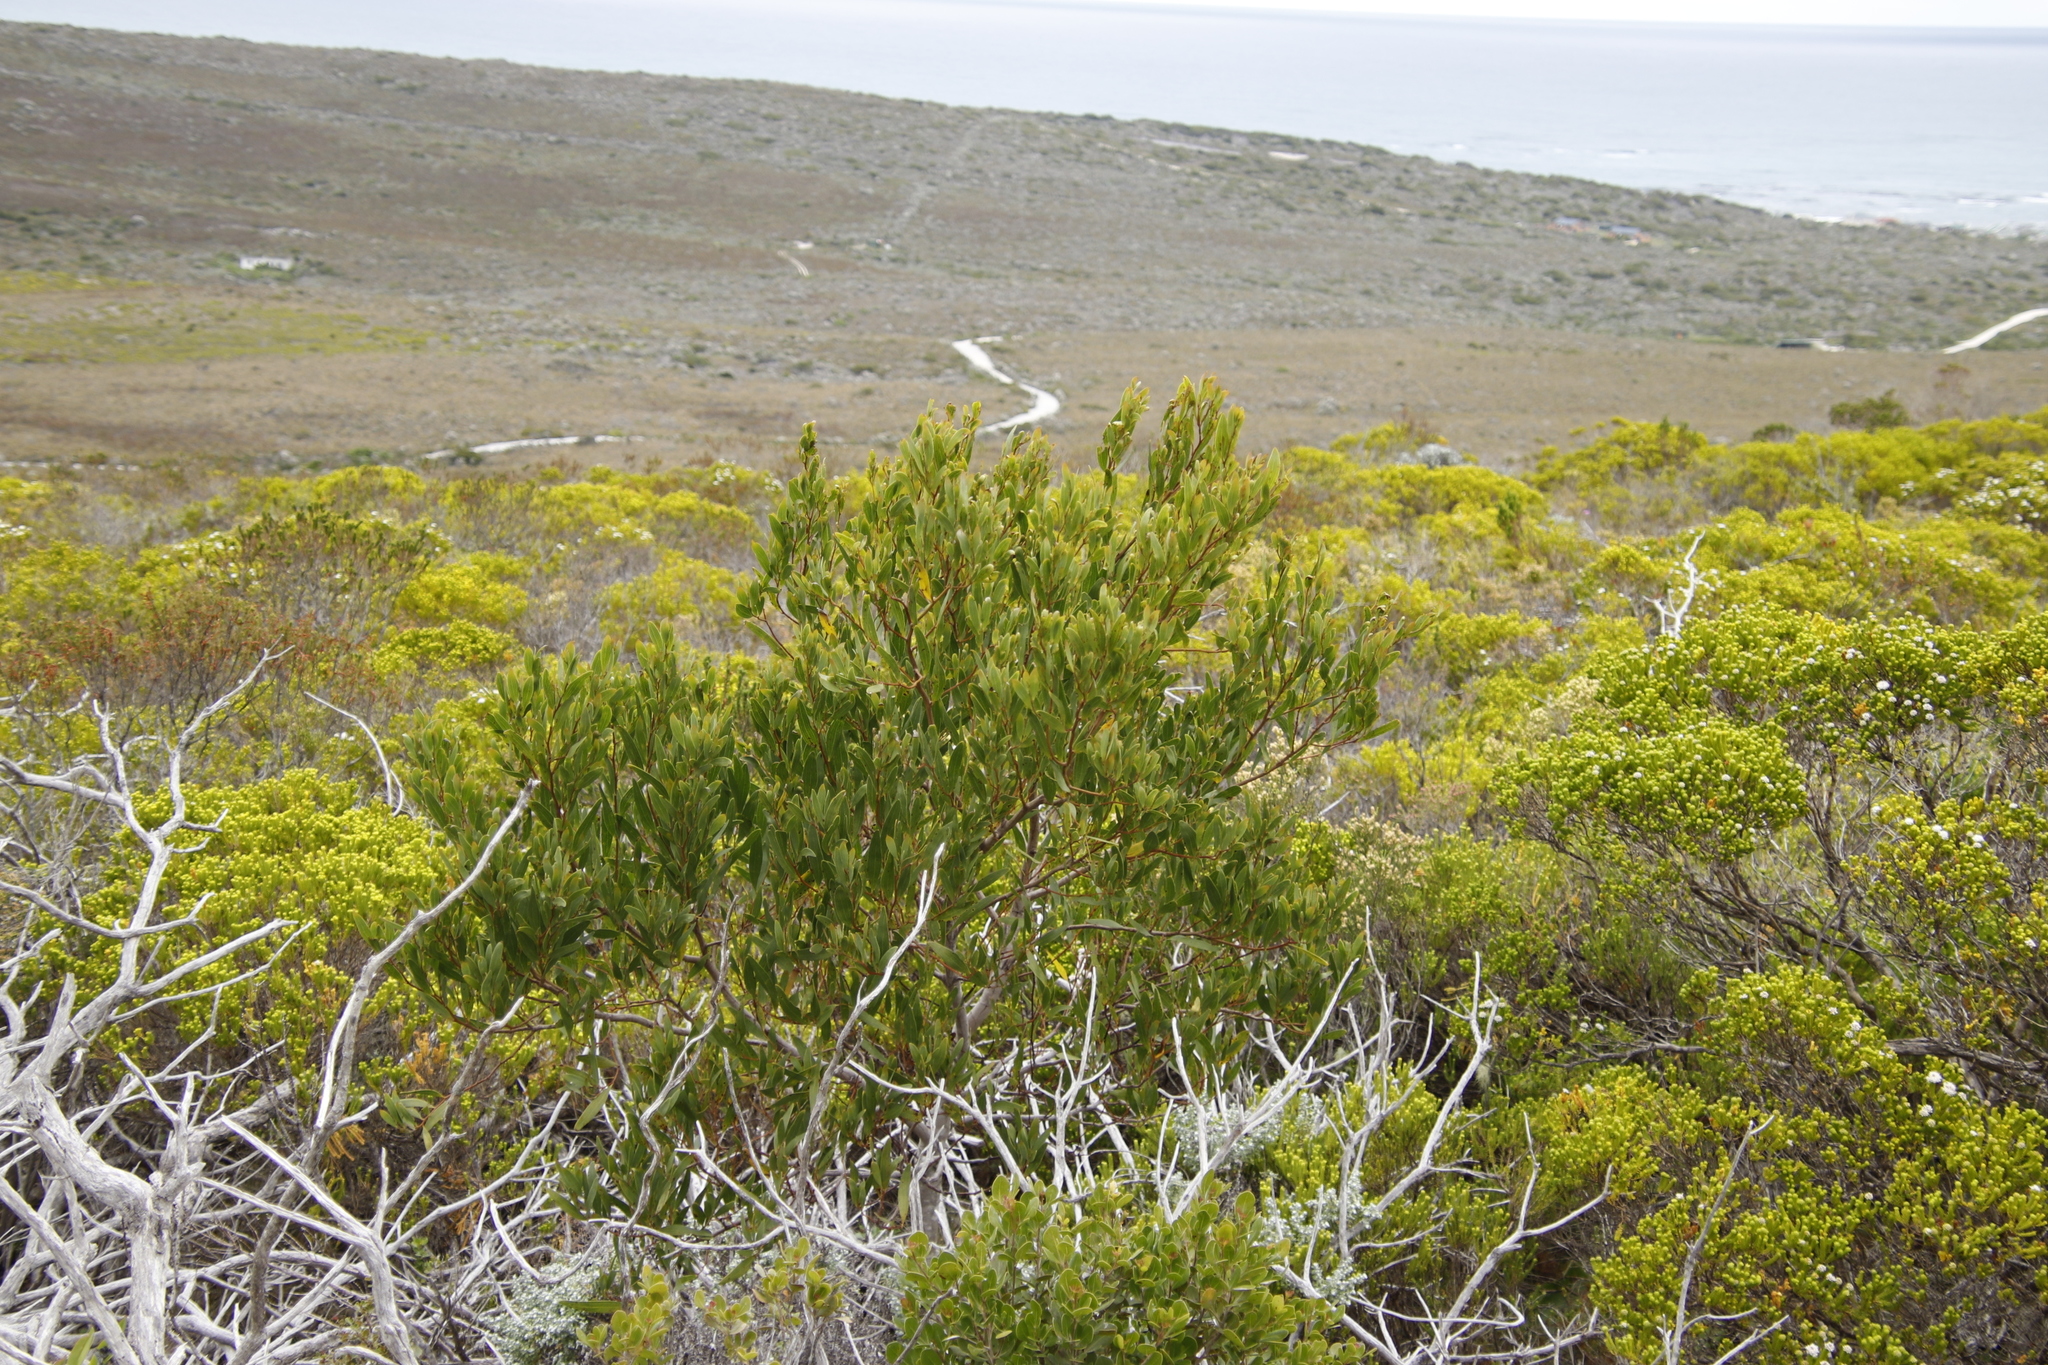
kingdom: Plantae
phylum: Tracheophyta
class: Magnoliopsida
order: Fabales
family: Fabaceae
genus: Acacia
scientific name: Acacia cyclops
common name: Coastal wattle
